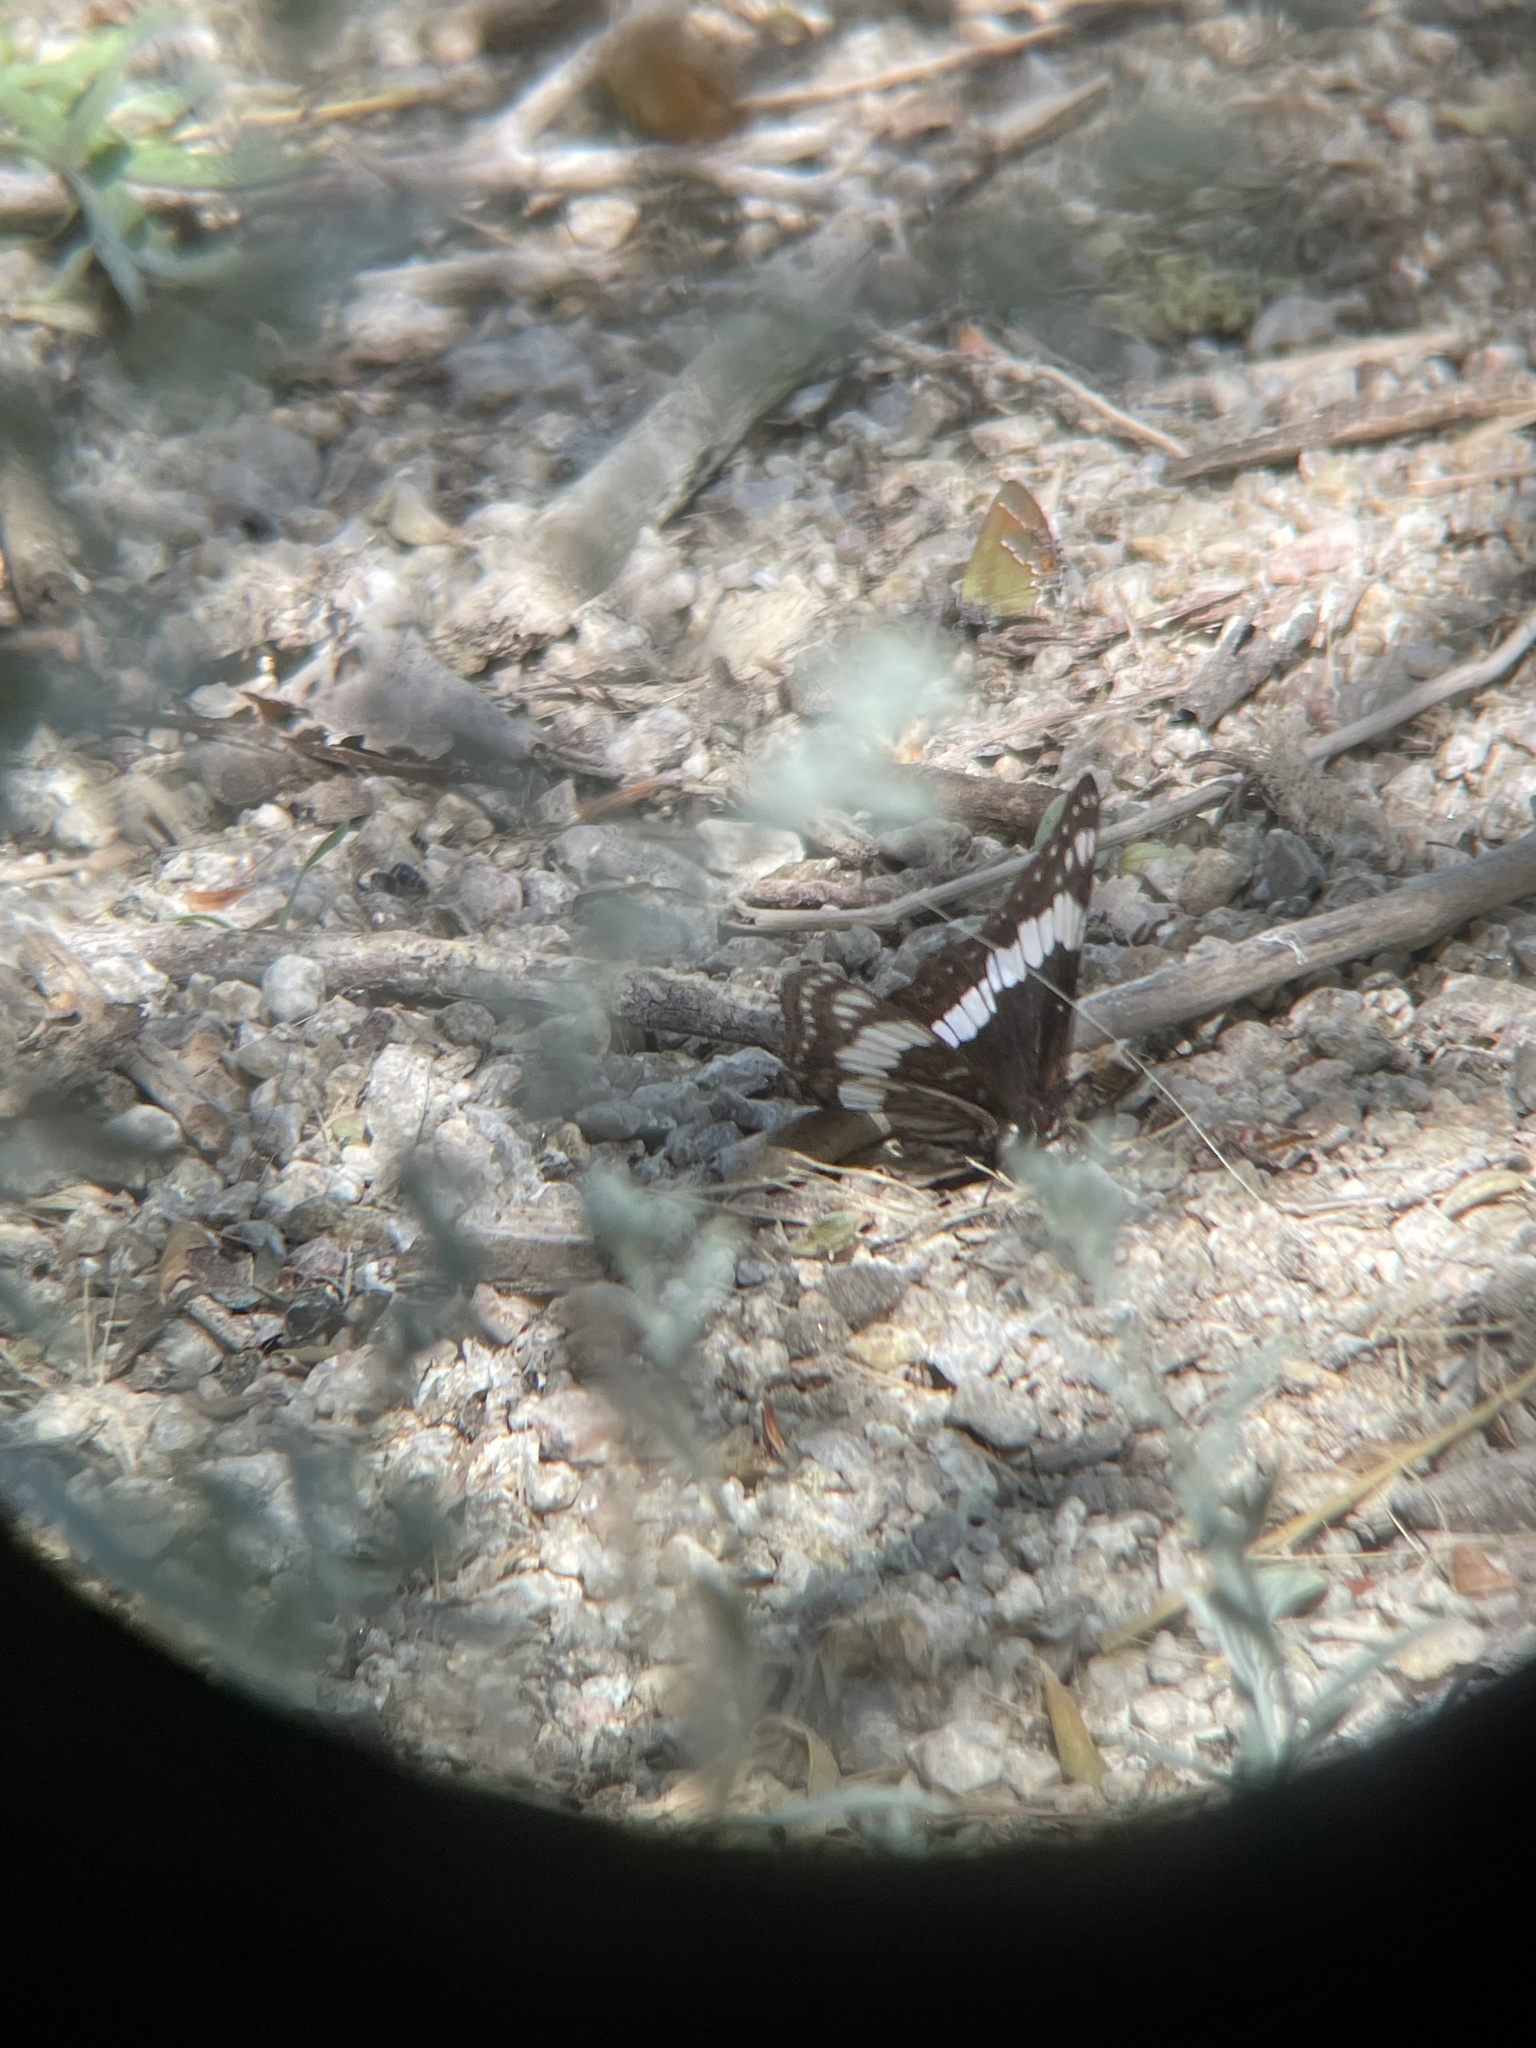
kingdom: Animalia
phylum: Arthropoda
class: Insecta
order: Lepidoptera
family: Nymphalidae
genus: Limenitis
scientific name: Limenitis weidemeyerii
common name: Weidemeyer's admiral
